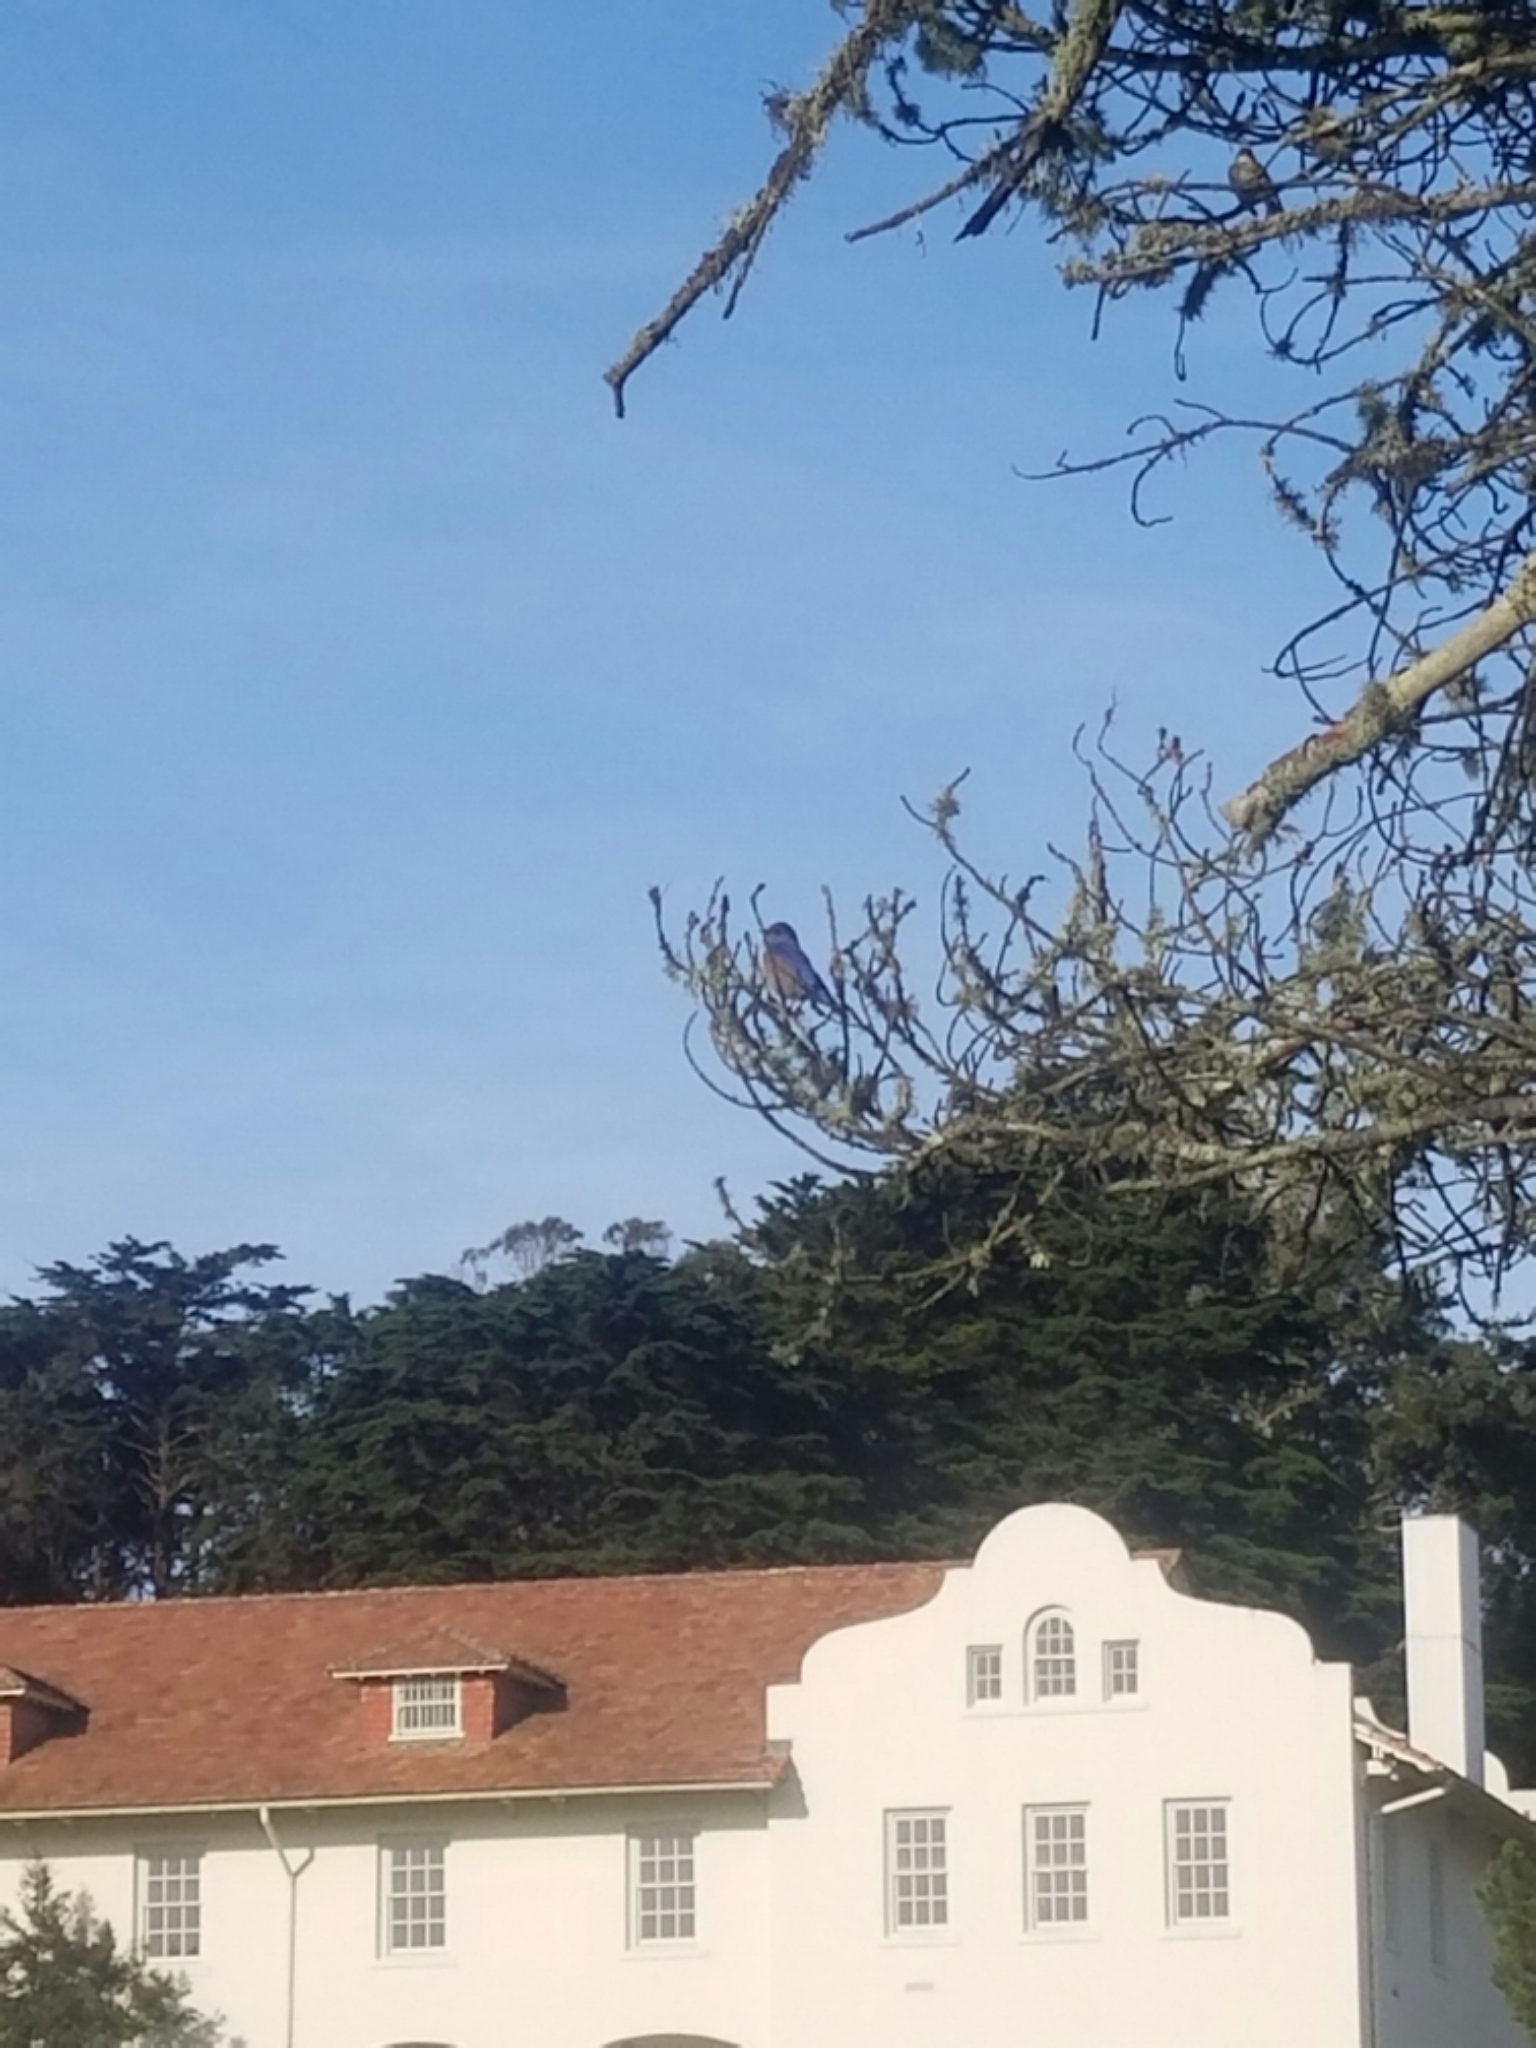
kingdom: Animalia
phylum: Chordata
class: Aves
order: Passeriformes
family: Turdidae
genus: Sialia
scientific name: Sialia mexicana
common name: Western bluebird
